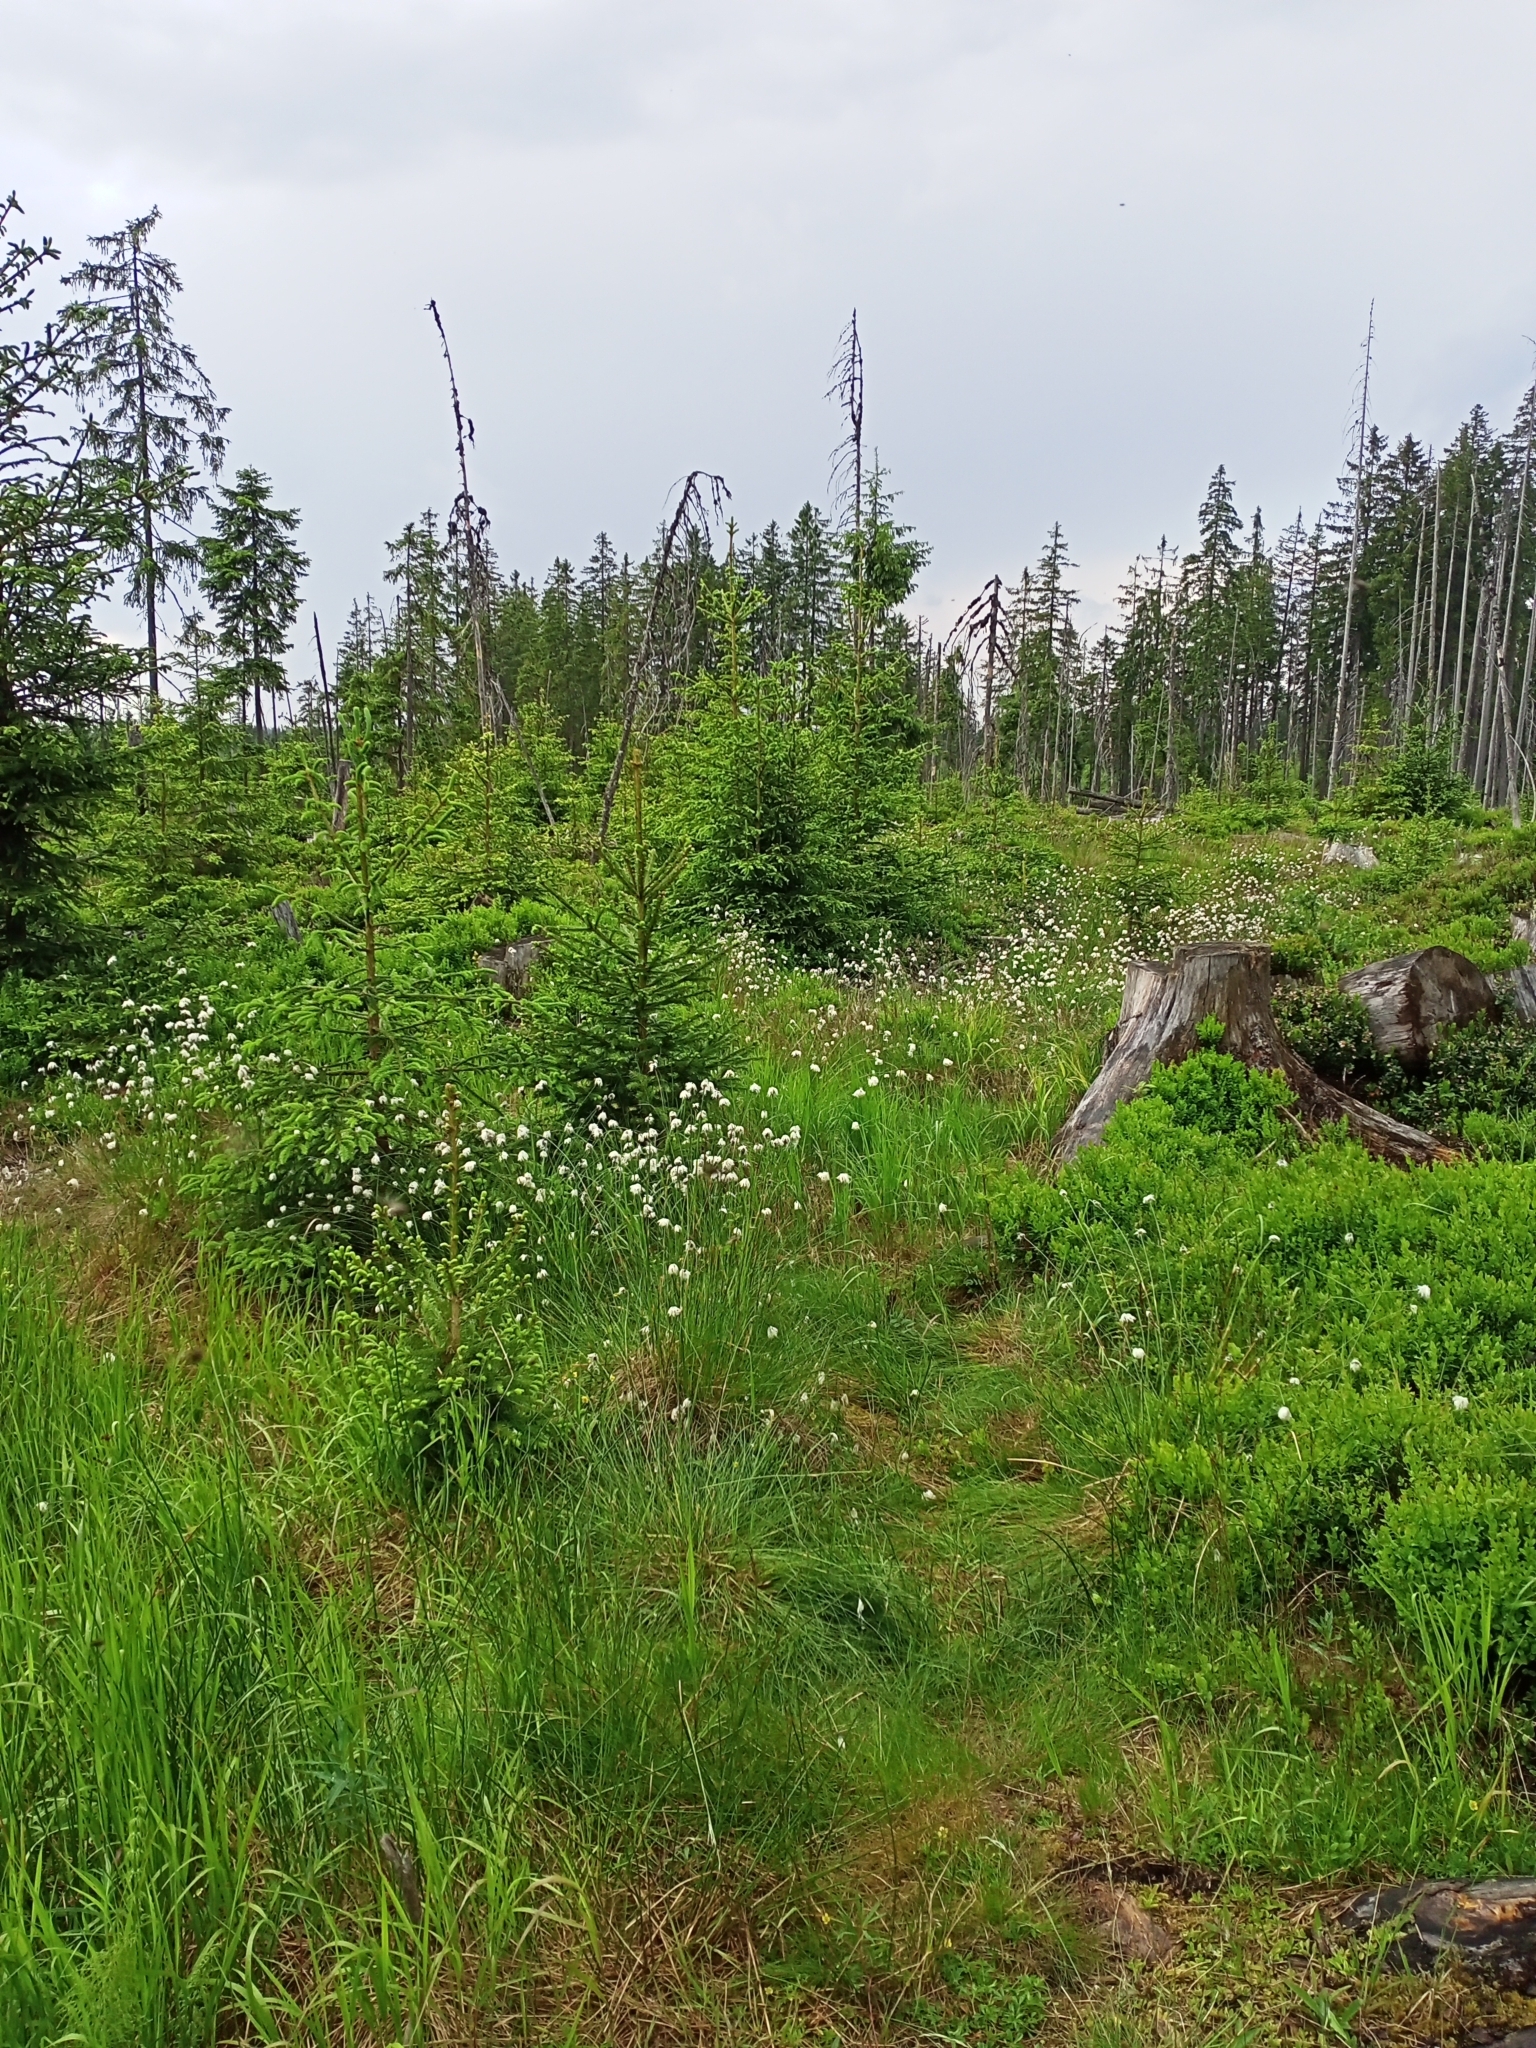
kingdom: Plantae
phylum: Tracheophyta
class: Liliopsida
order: Poales
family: Cyperaceae
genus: Eriophorum
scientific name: Eriophorum vaginatum
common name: Hare's-tail cottongrass
